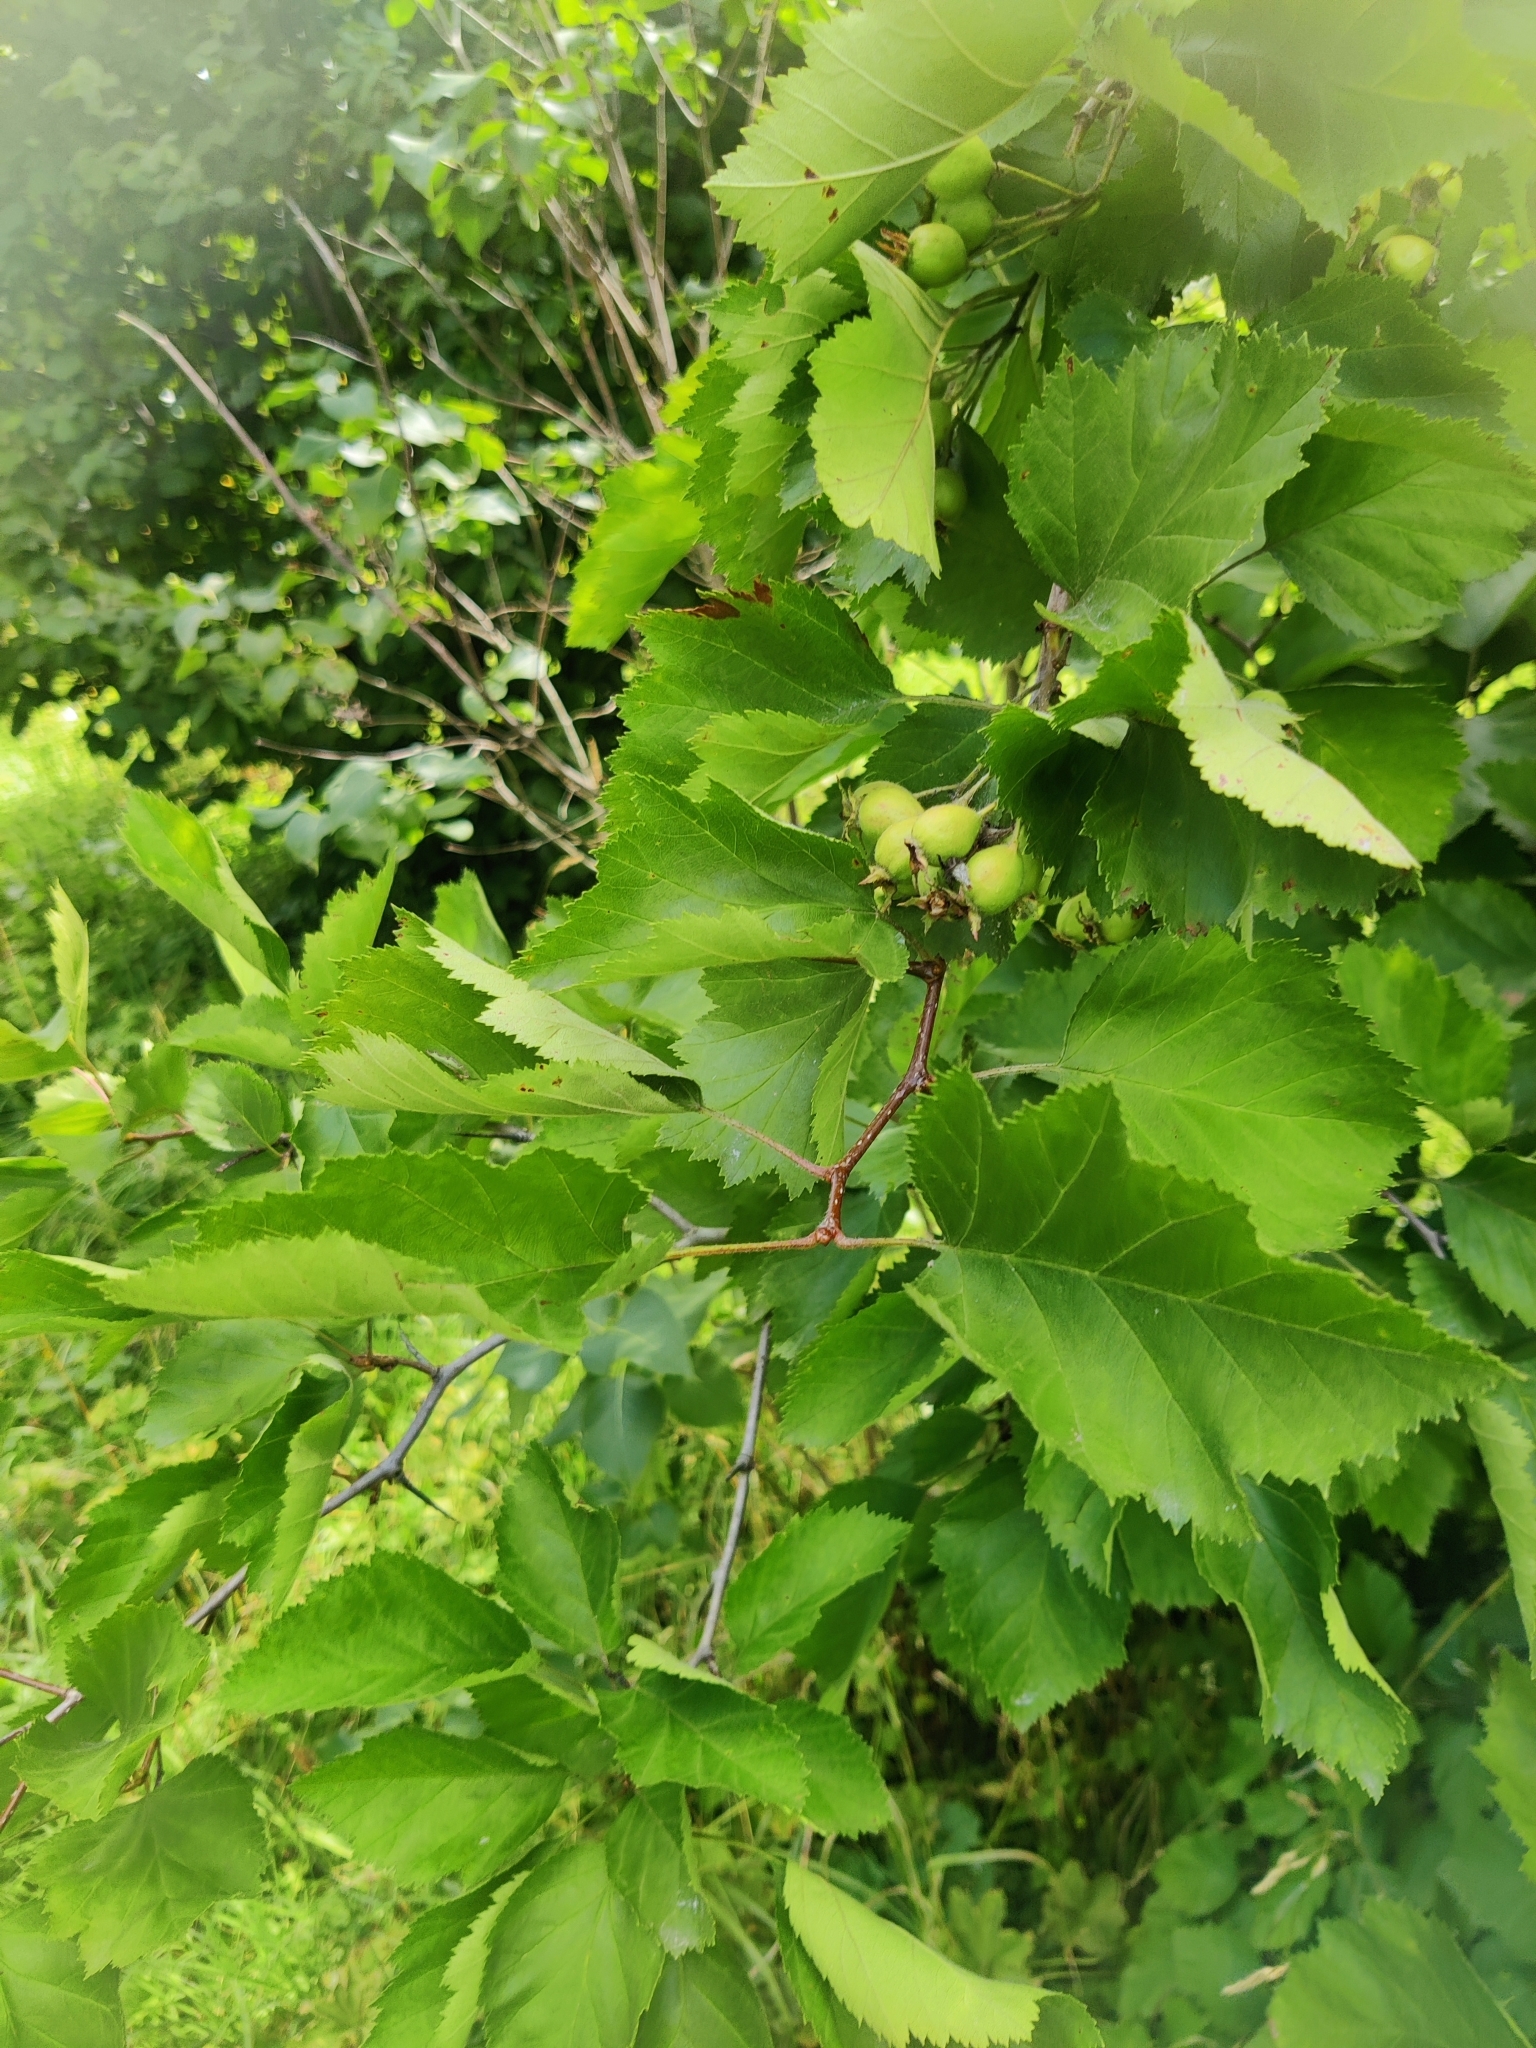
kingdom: Plantae
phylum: Tracheophyta
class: Magnoliopsida
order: Rosales
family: Rosaceae
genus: Crataegus
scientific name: Crataegus submollis
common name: Hairy cockspurthorn
